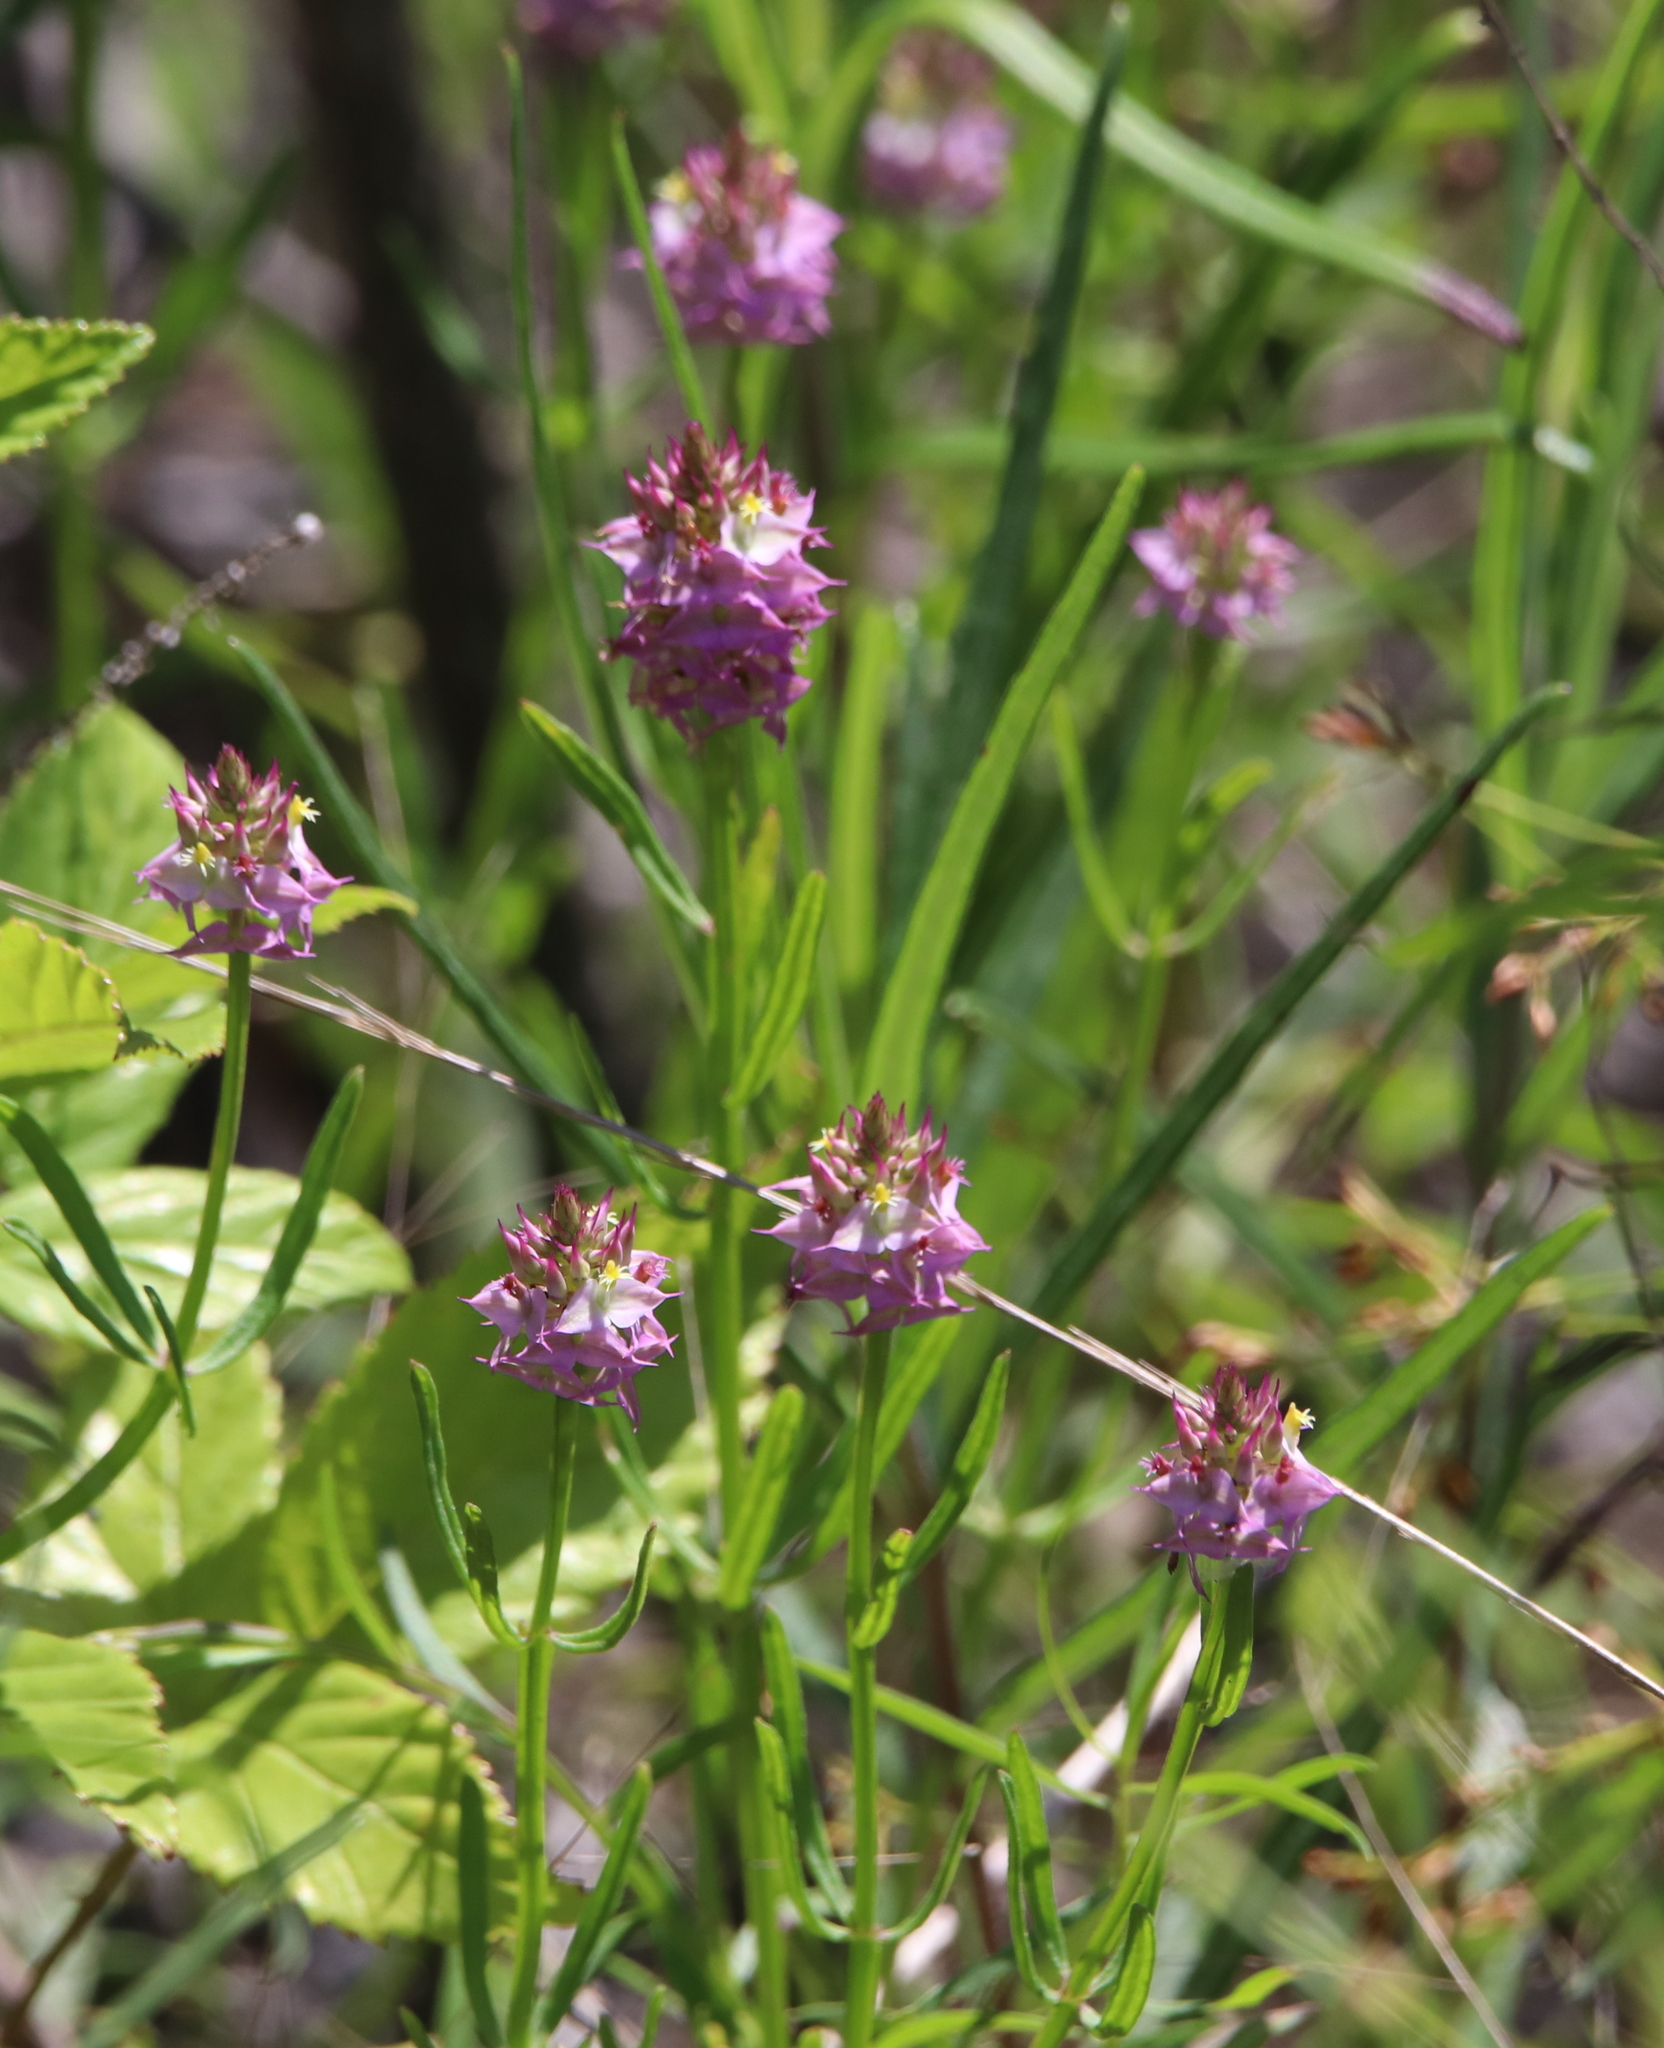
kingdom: Plantae
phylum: Tracheophyta
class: Magnoliopsida
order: Fabales
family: Polygalaceae
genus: Polygala
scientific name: Polygala cruciata
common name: Drumheads
